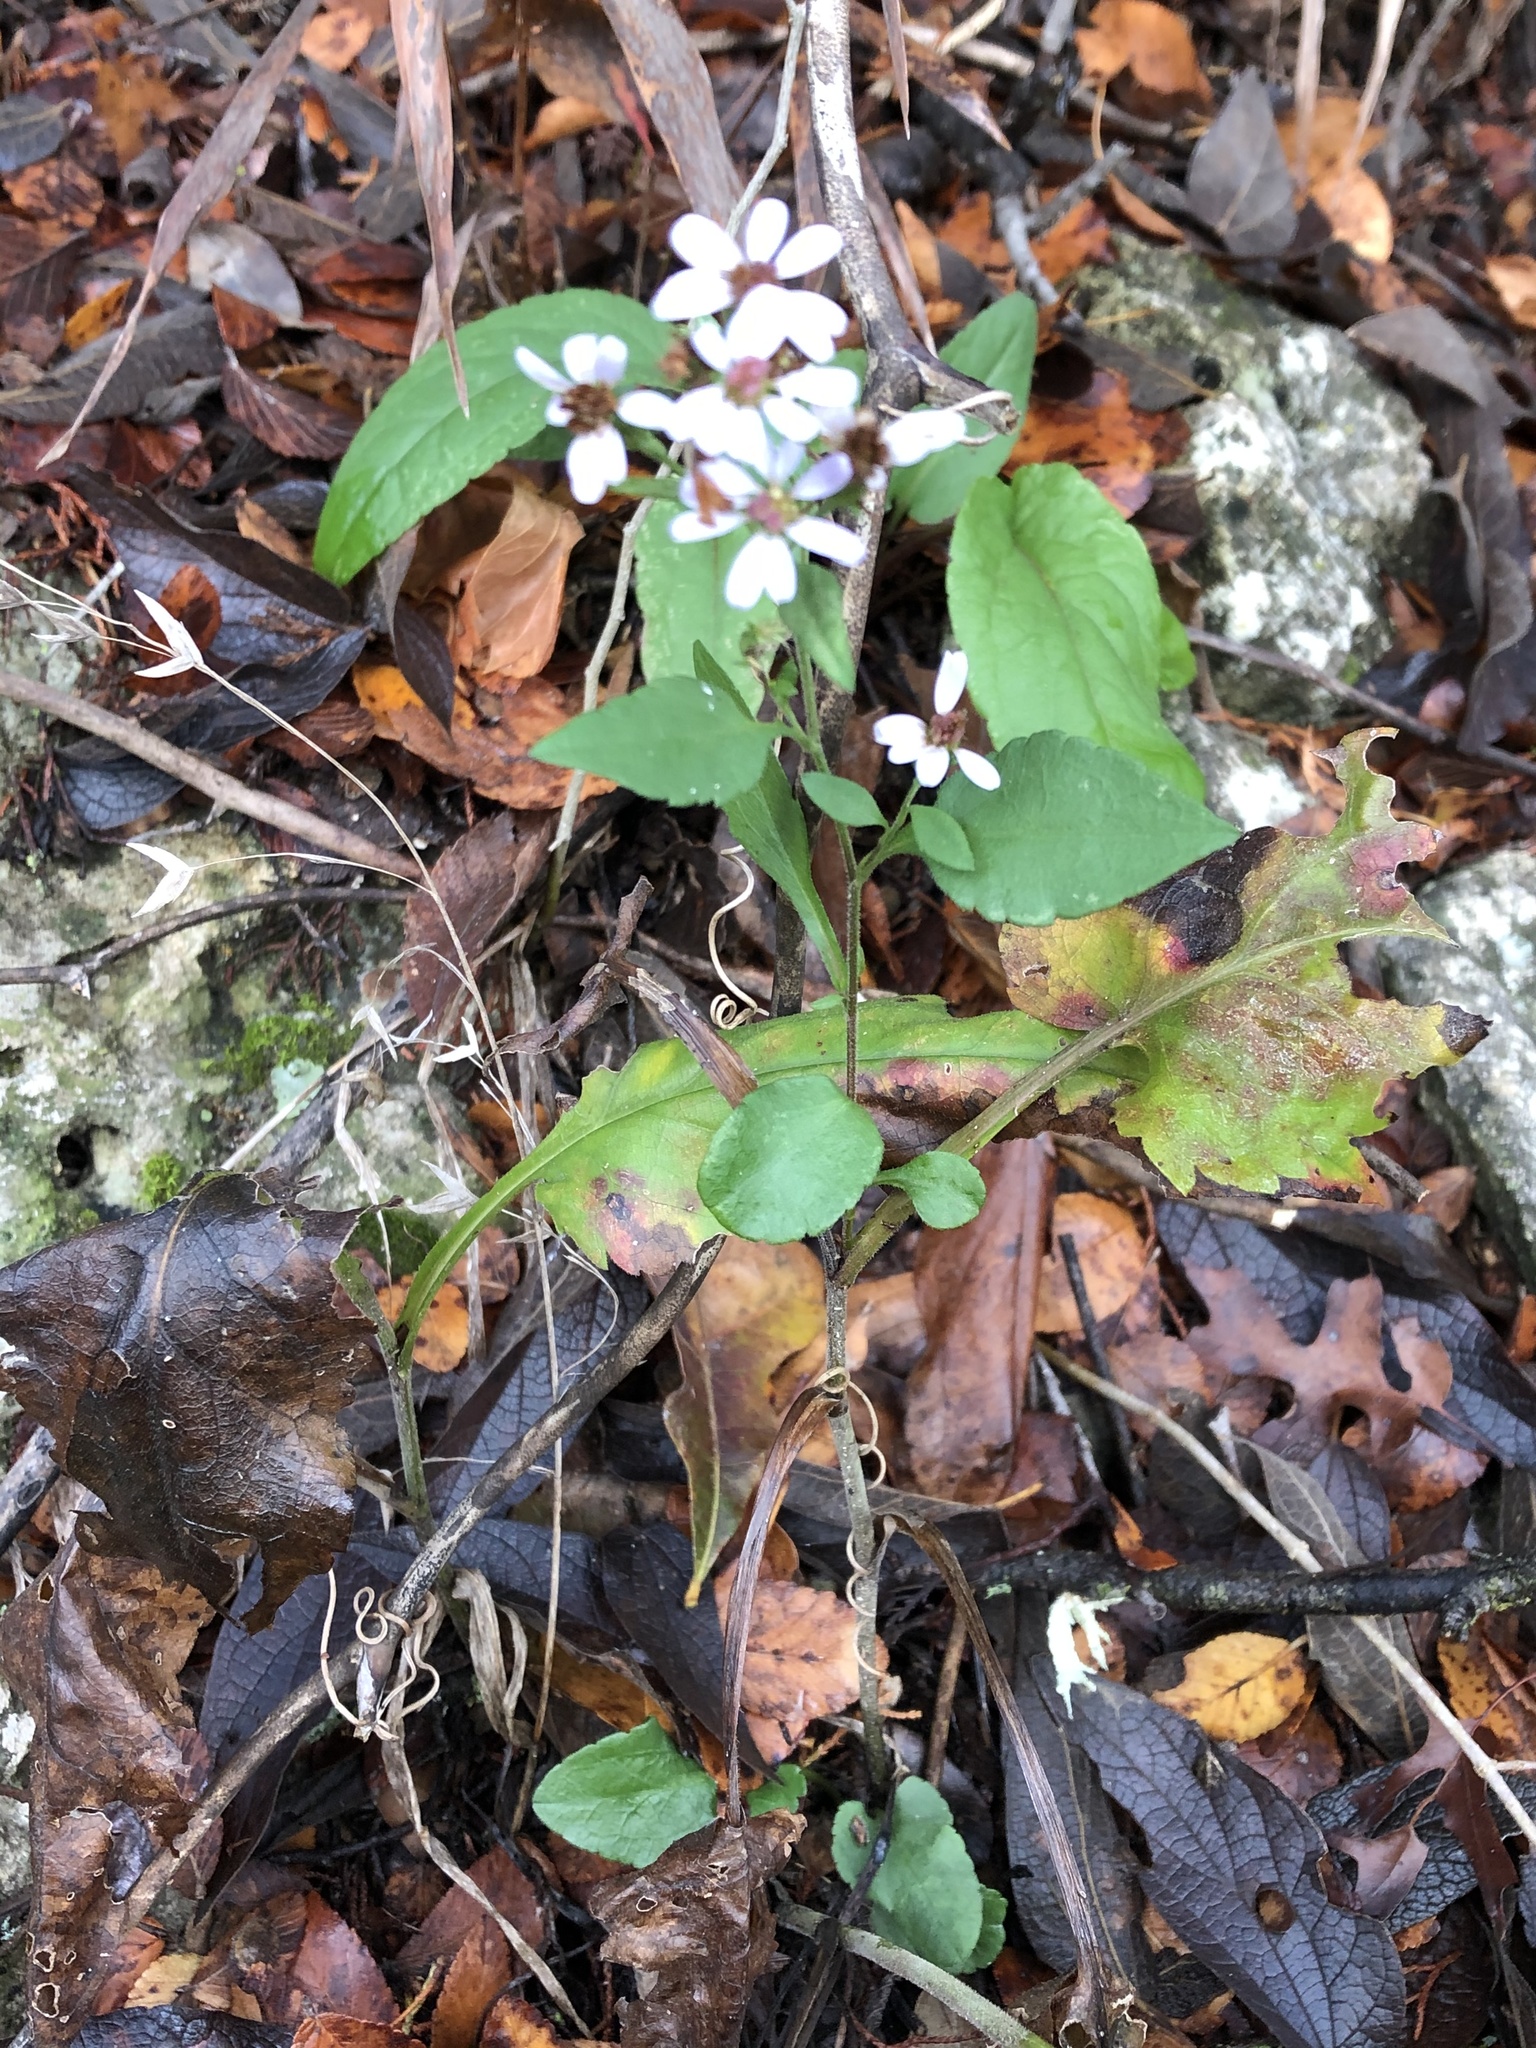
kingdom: Plantae
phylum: Tracheophyta
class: Magnoliopsida
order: Asterales
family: Asteraceae
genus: Symphyotrichum
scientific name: Symphyotrichum drummondii
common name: Drummond's aster
